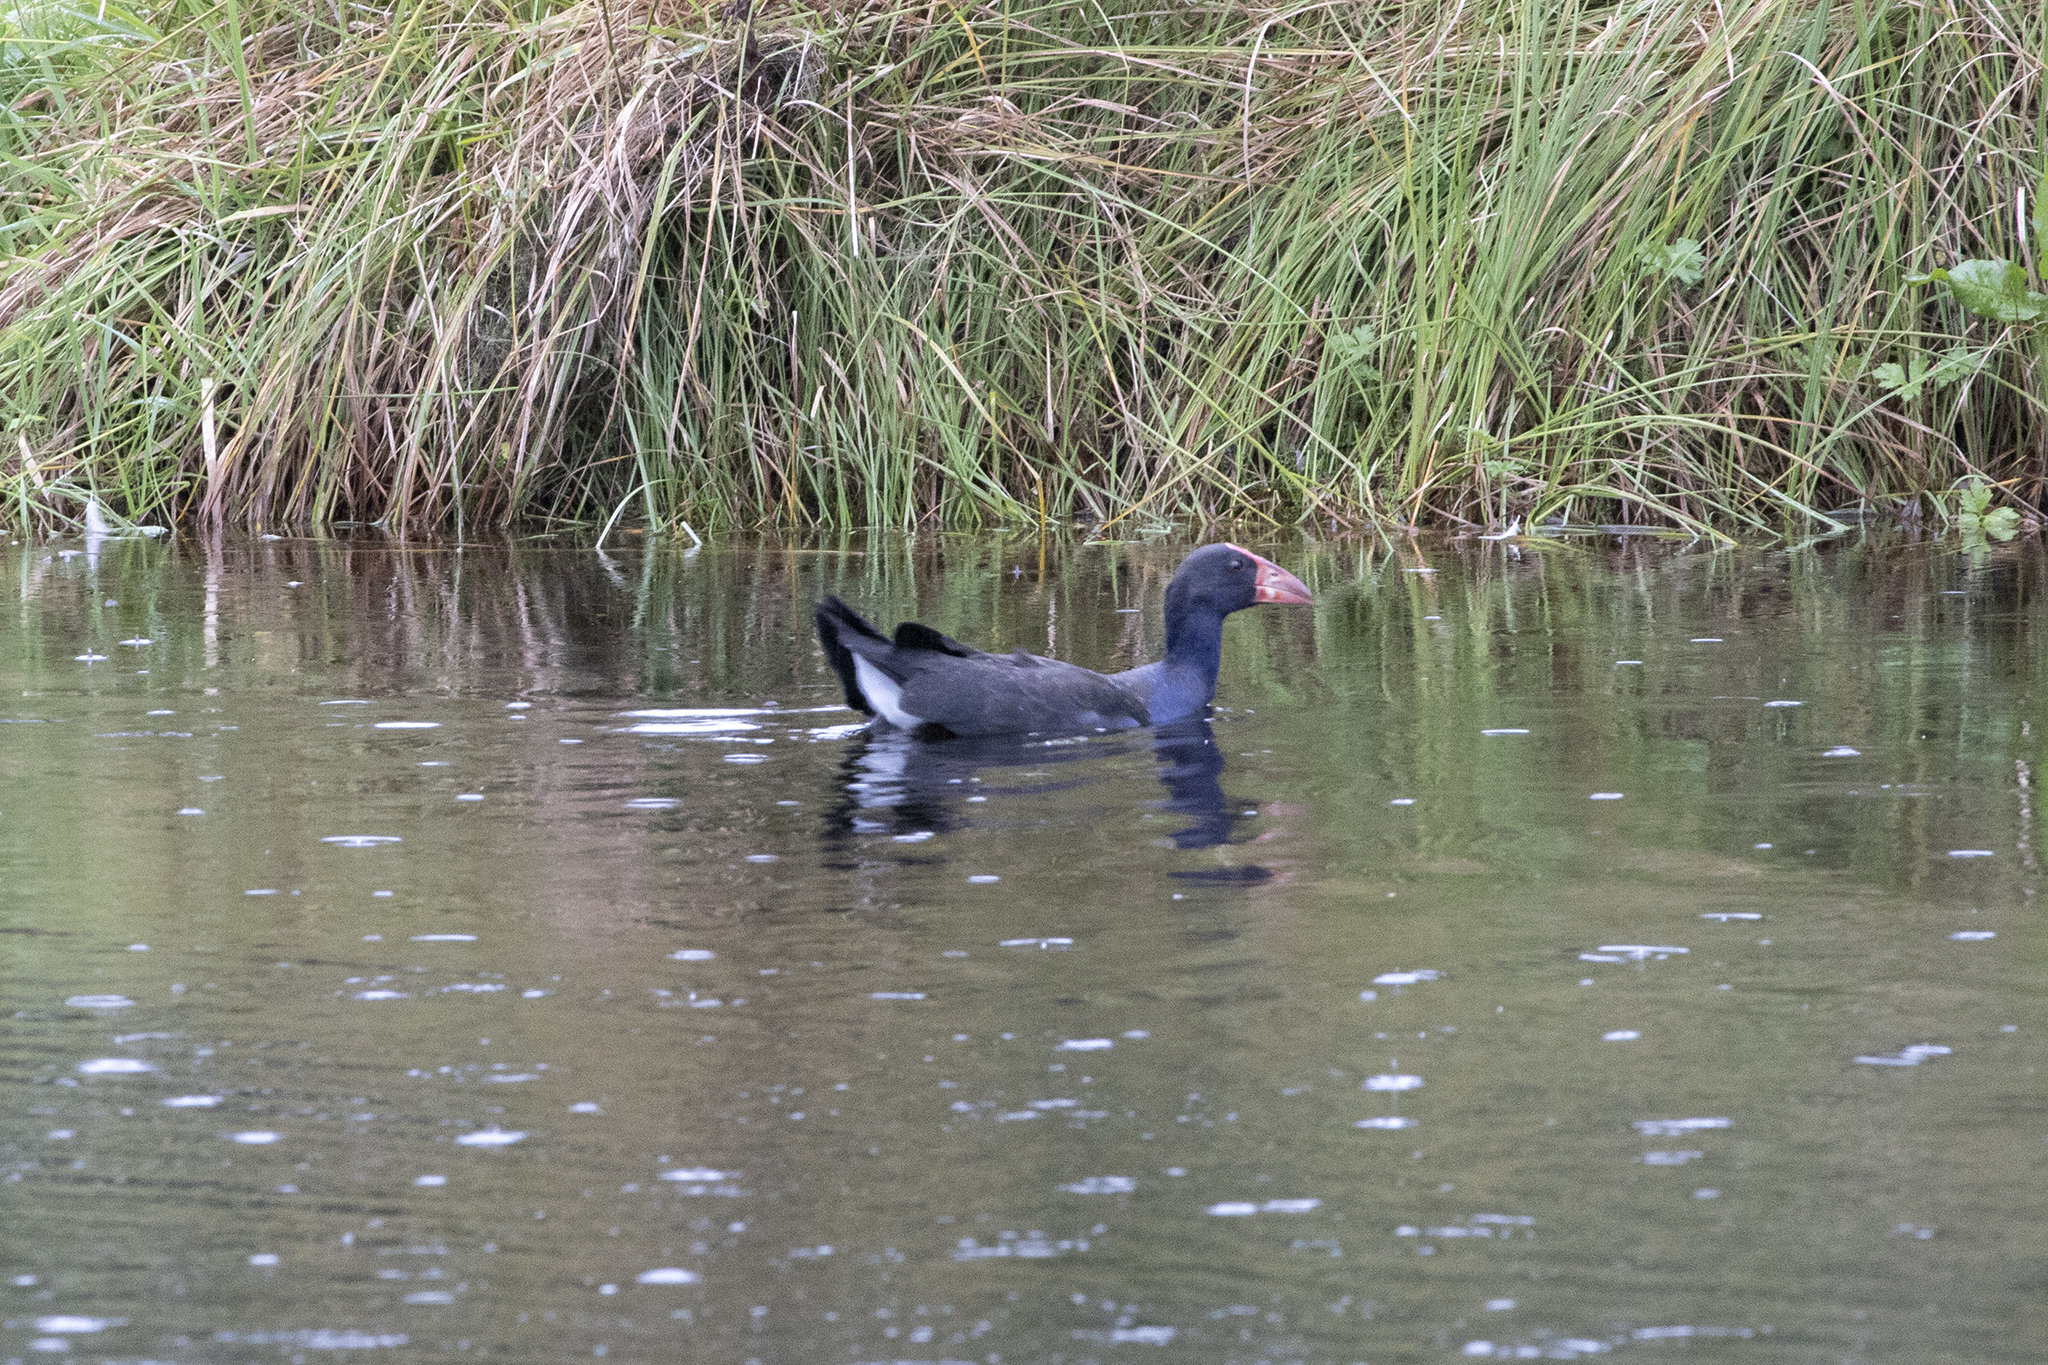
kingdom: Animalia
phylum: Chordata
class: Aves
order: Gruiformes
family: Rallidae
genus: Porphyrio
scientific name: Porphyrio melanotus
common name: Australasian swamphen
